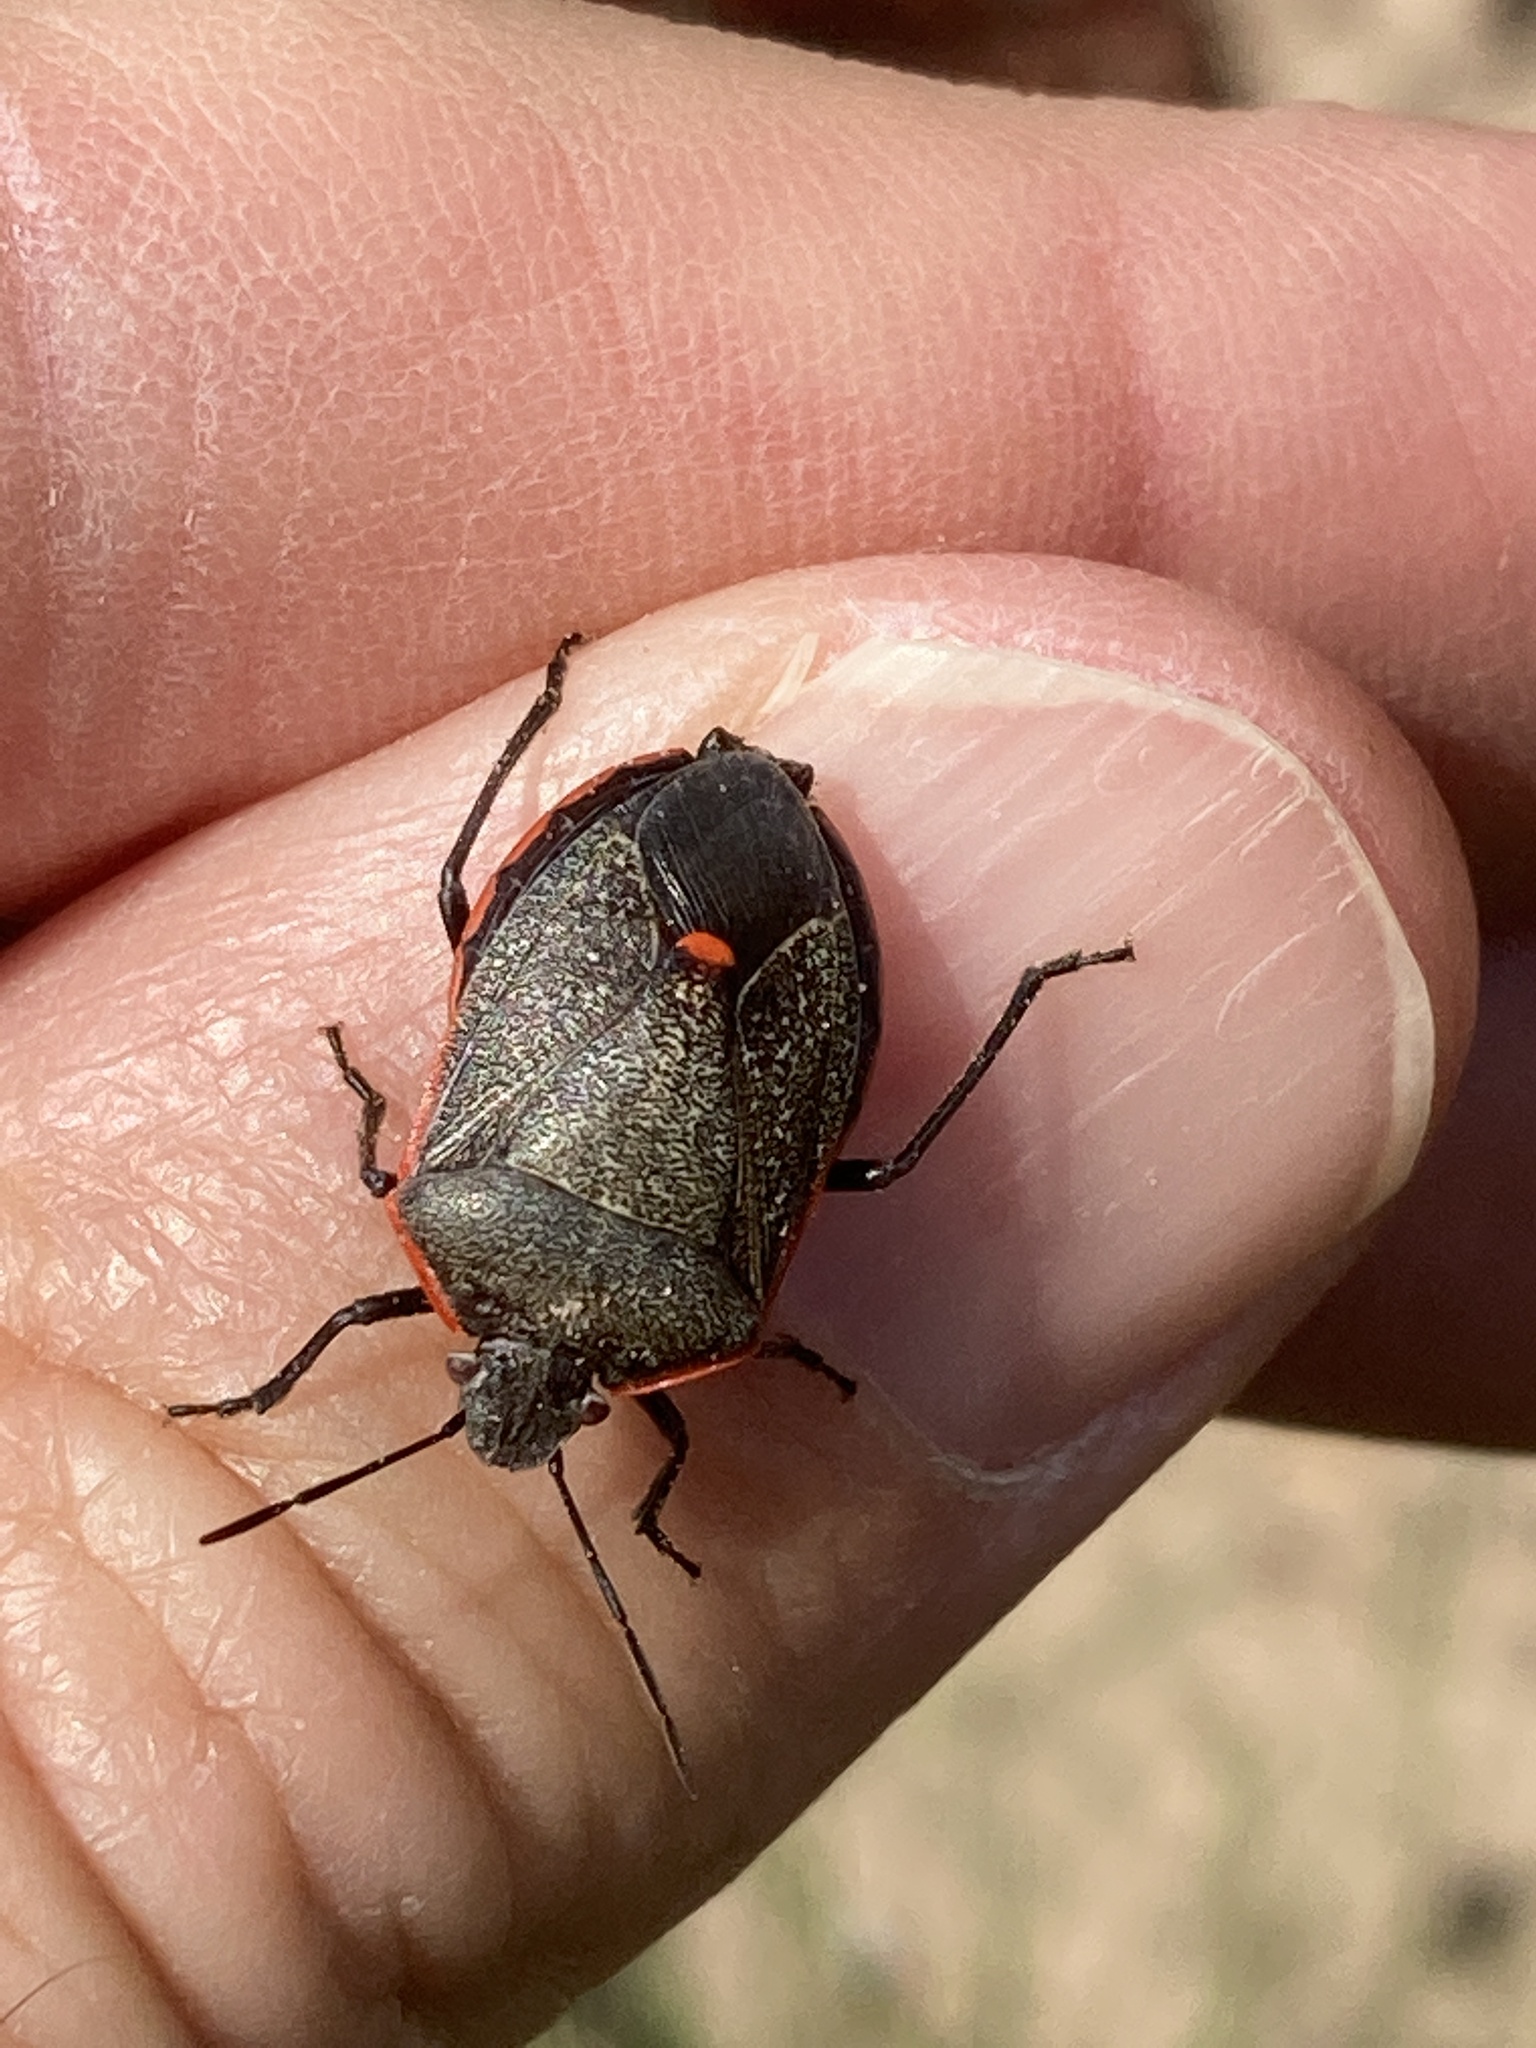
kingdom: Animalia
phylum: Arthropoda
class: Insecta
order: Hemiptera
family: Pentatomidae
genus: Chlorochroa
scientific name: Chlorochroa ligata
